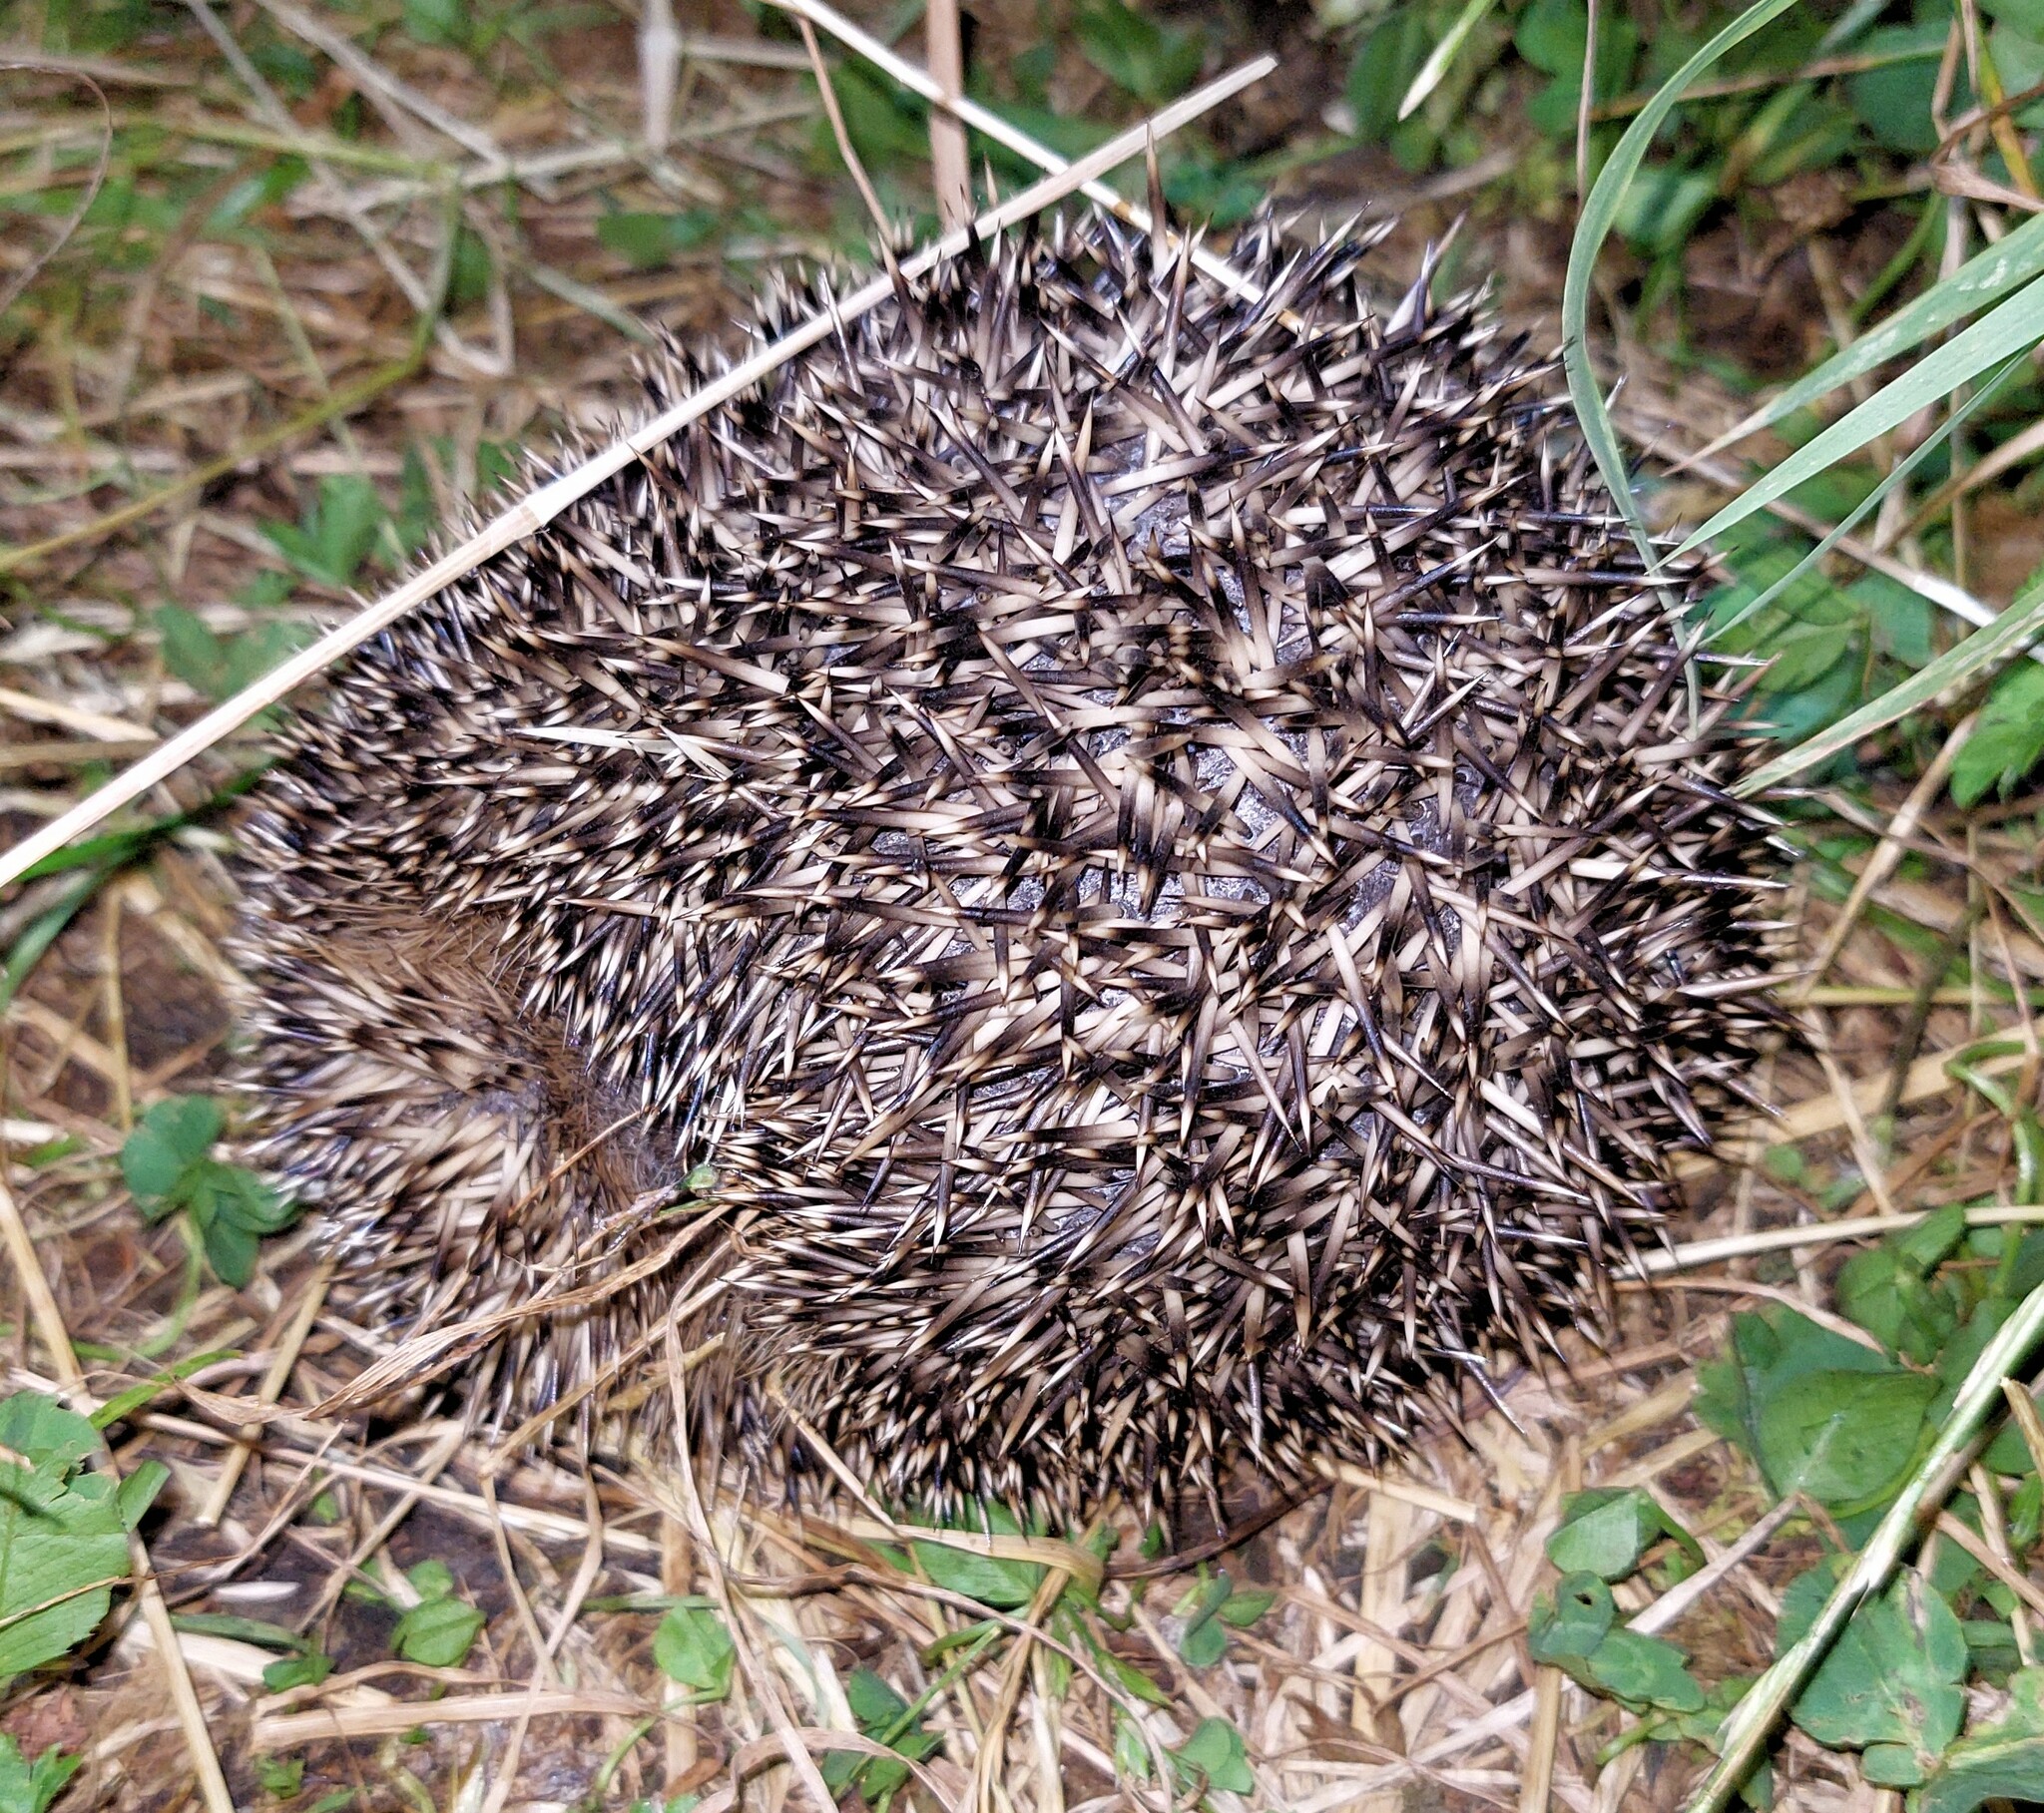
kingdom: Animalia
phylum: Chordata
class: Mammalia
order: Erinaceomorpha
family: Erinaceidae
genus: Erinaceus
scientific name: Erinaceus europaeus
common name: West european hedgehog
